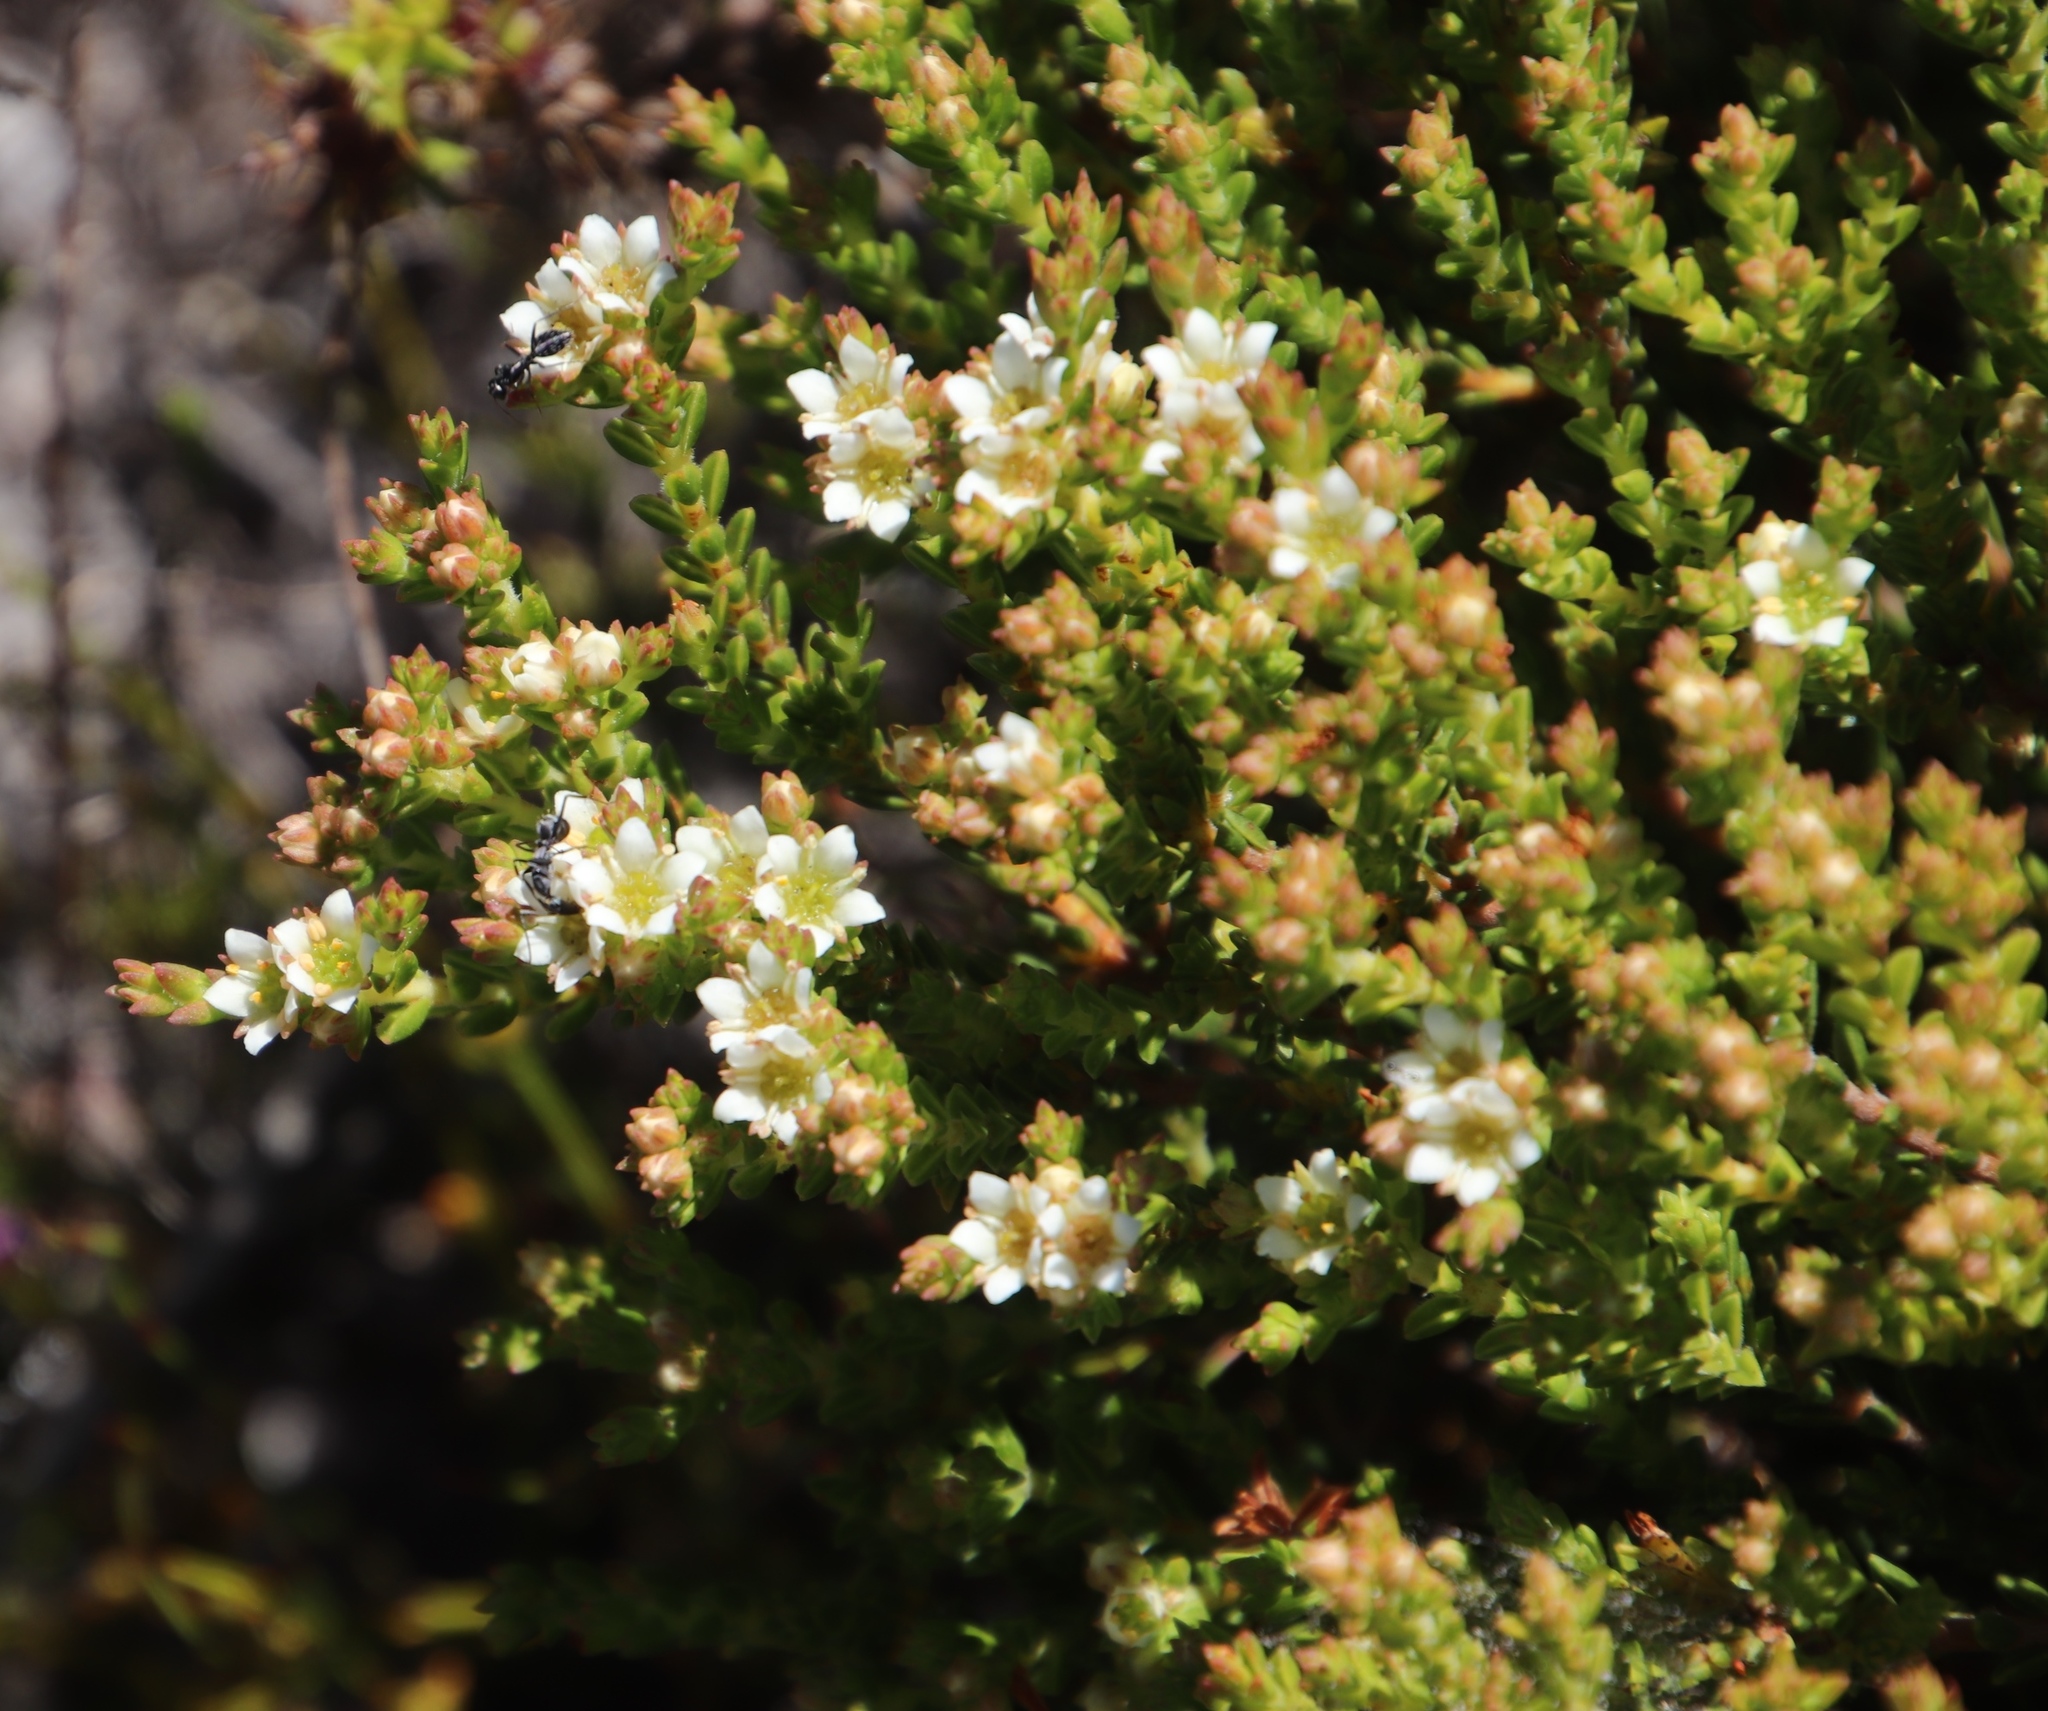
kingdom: Plantae
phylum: Tracheophyta
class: Magnoliopsida
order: Sapindales
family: Rutaceae
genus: Diosma
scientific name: Diosma oppositifolia
